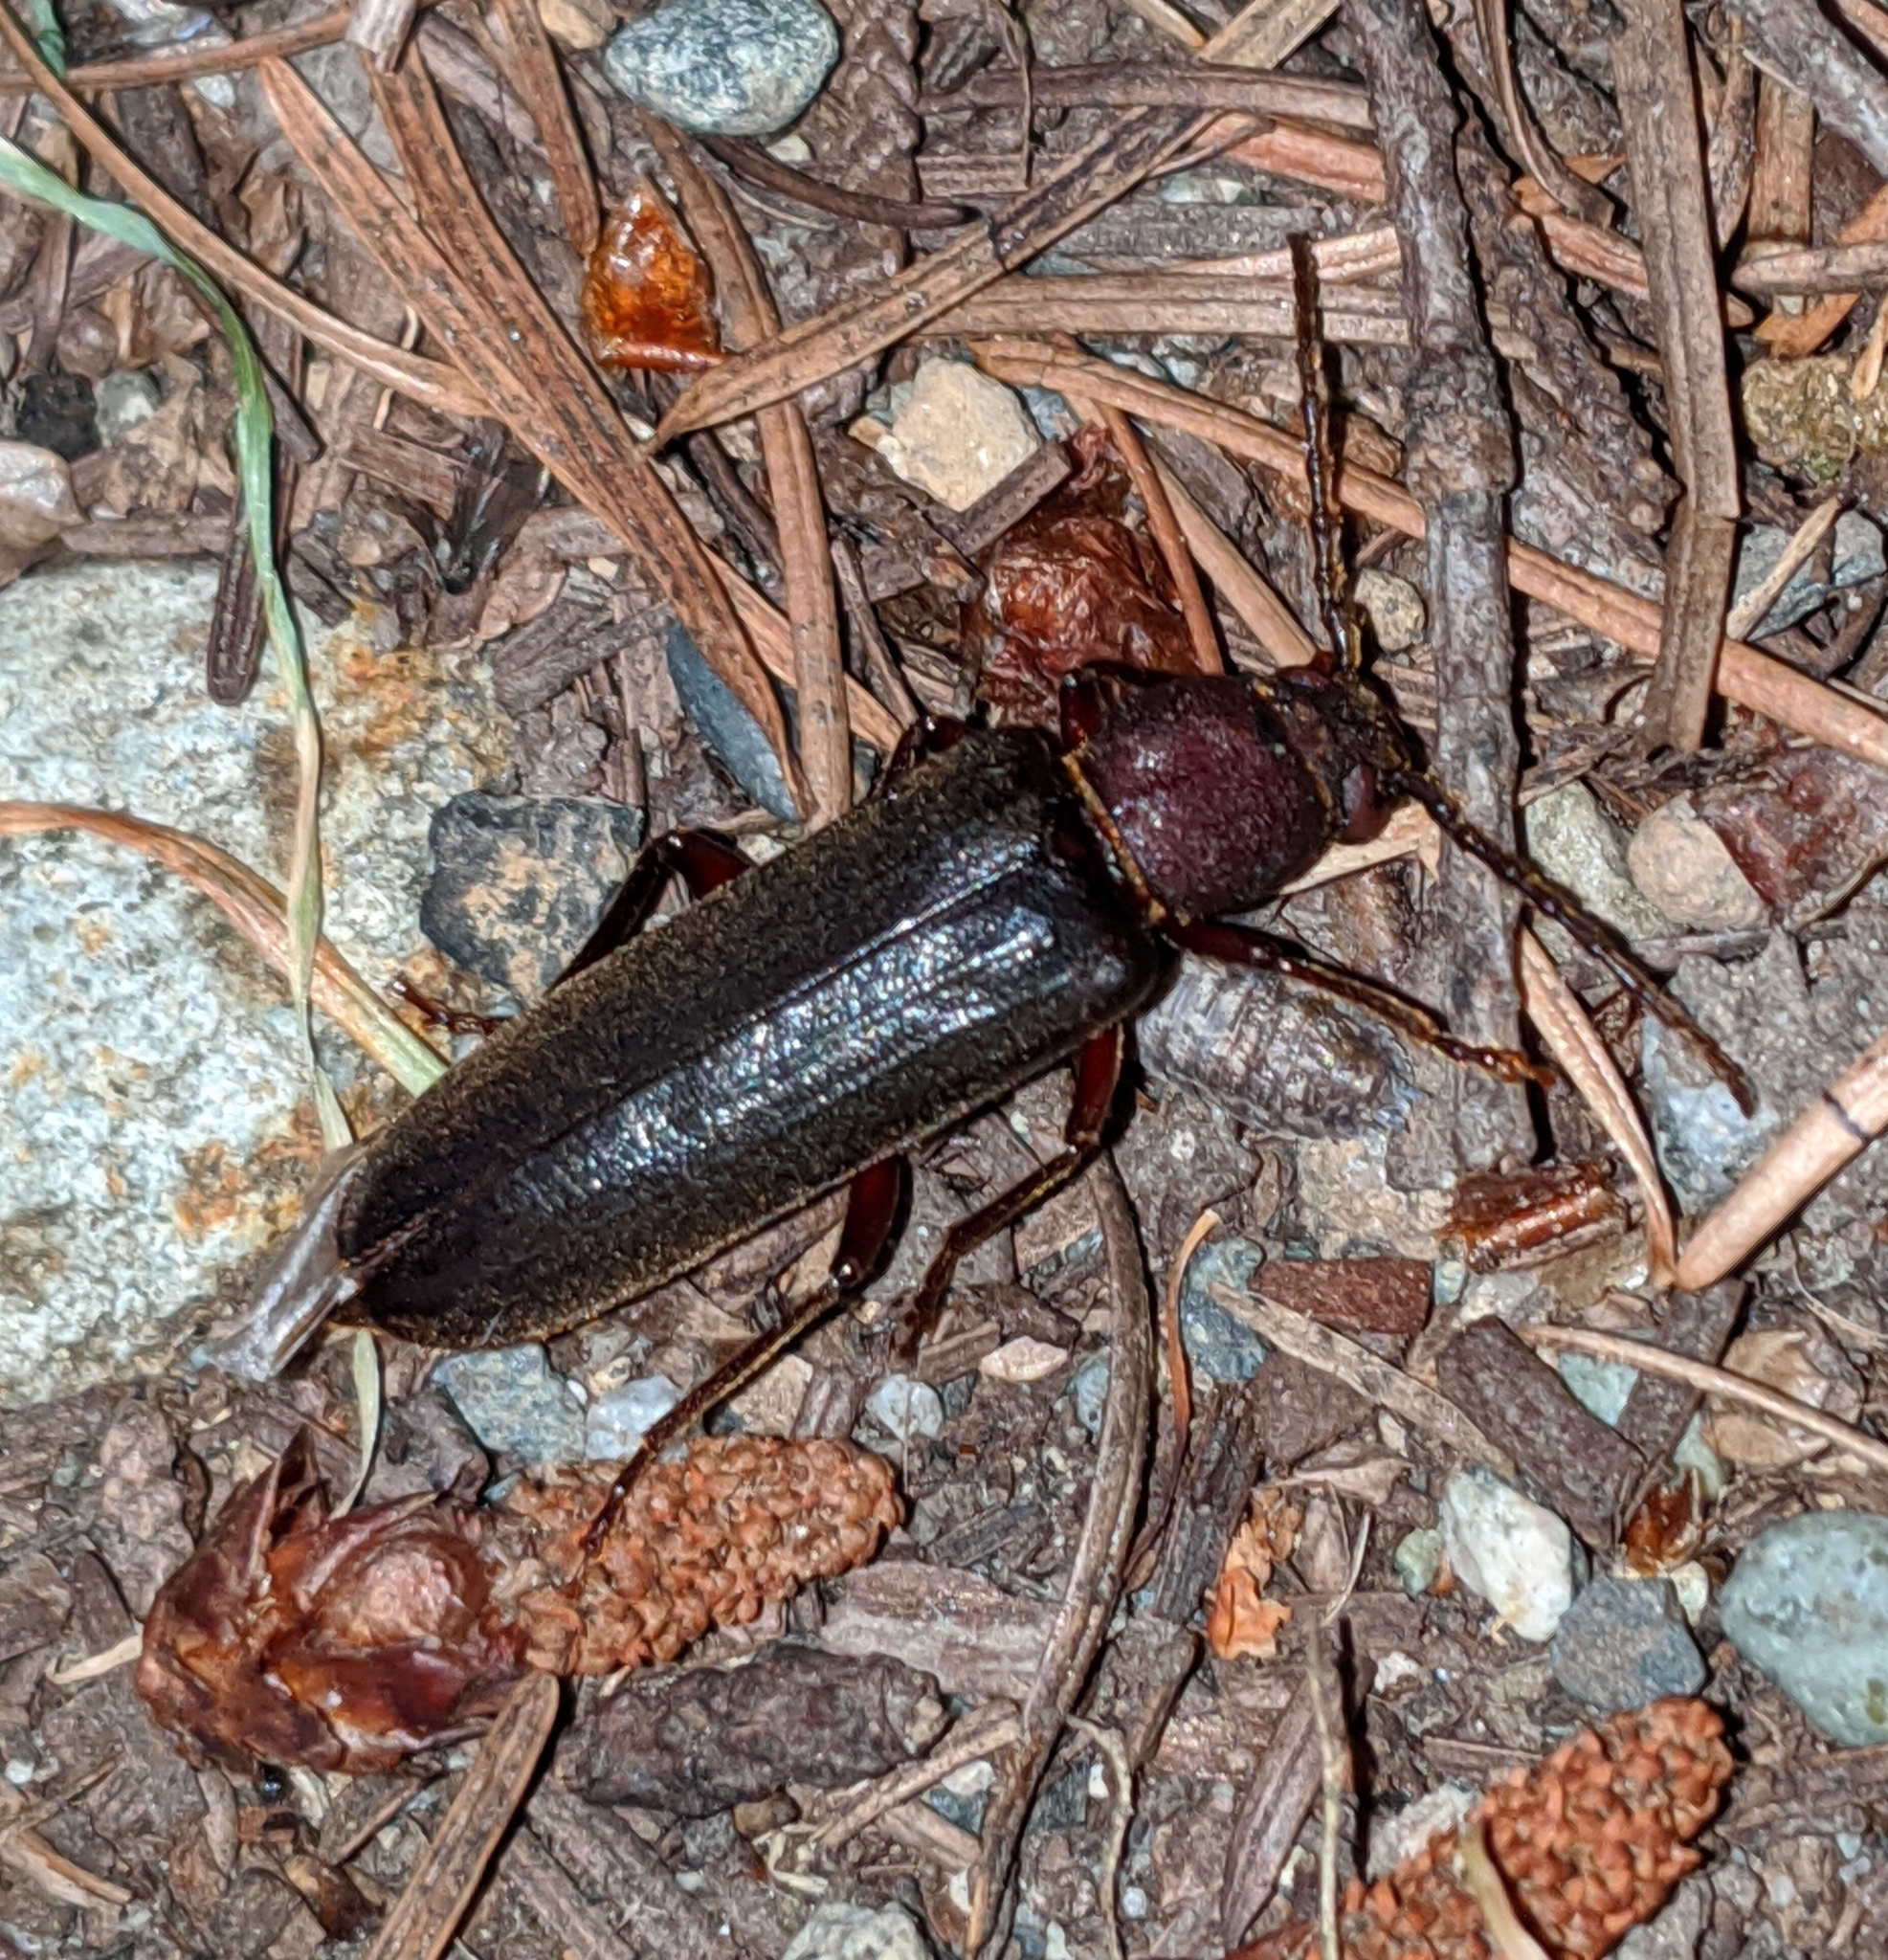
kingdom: Animalia
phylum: Arthropoda
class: Insecta
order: Coleoptera
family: Cerambycidae
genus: Megasemum
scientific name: Megasemum asperum
